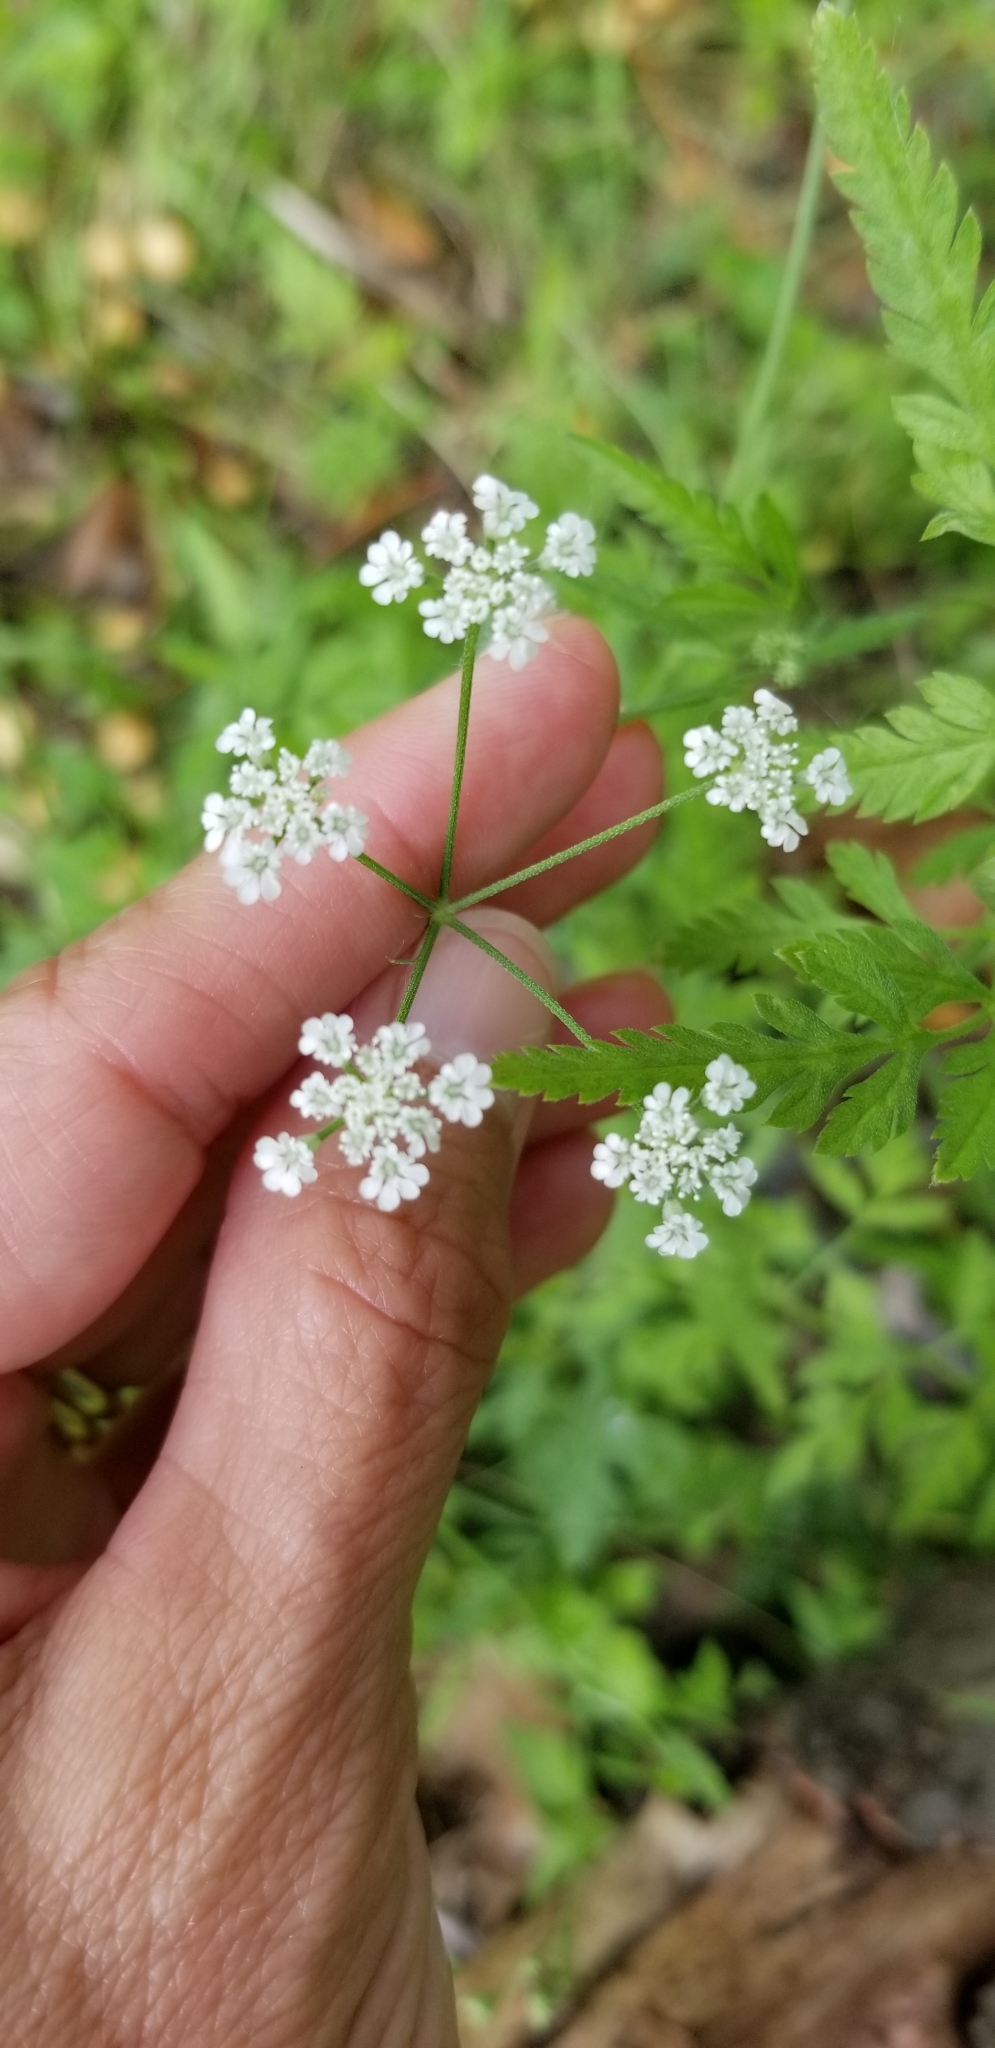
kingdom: Plantae
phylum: Tracheophyta
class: Magnoliopsida
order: Apiales
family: Apiaceae
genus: Torilis
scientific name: Torilis arvensis
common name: Spreading hedge-parsley
